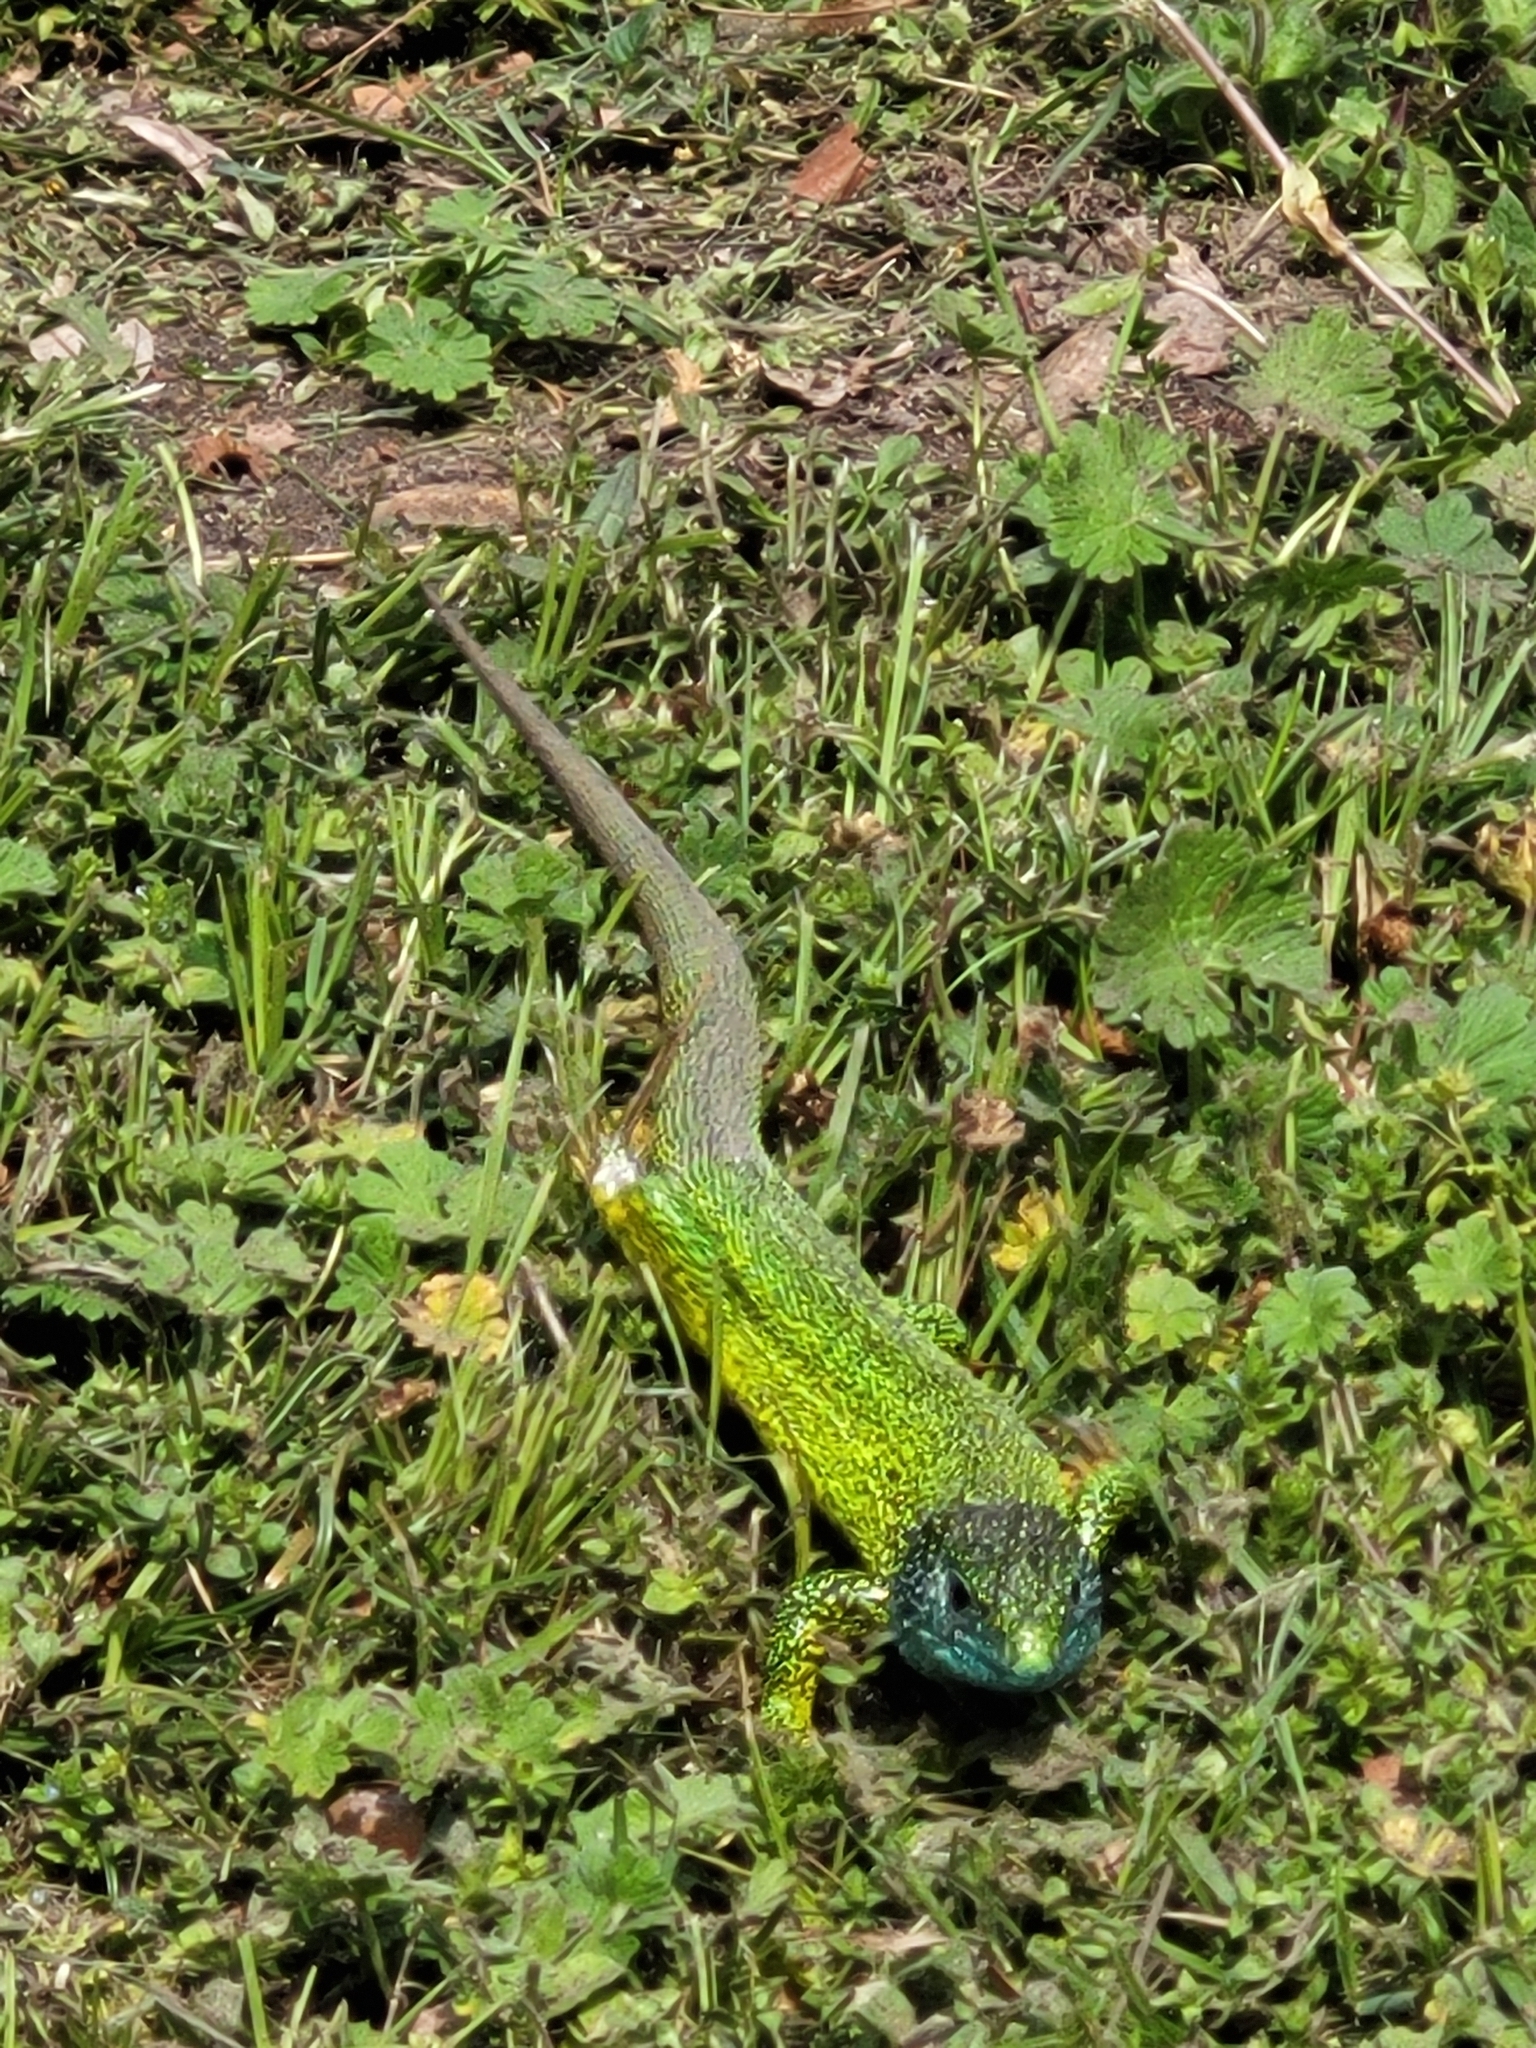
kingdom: Animalia
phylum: Chordata
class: Squamata
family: Lacertidae
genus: Lacerta
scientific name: Lacerta viridis
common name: European green lizard
